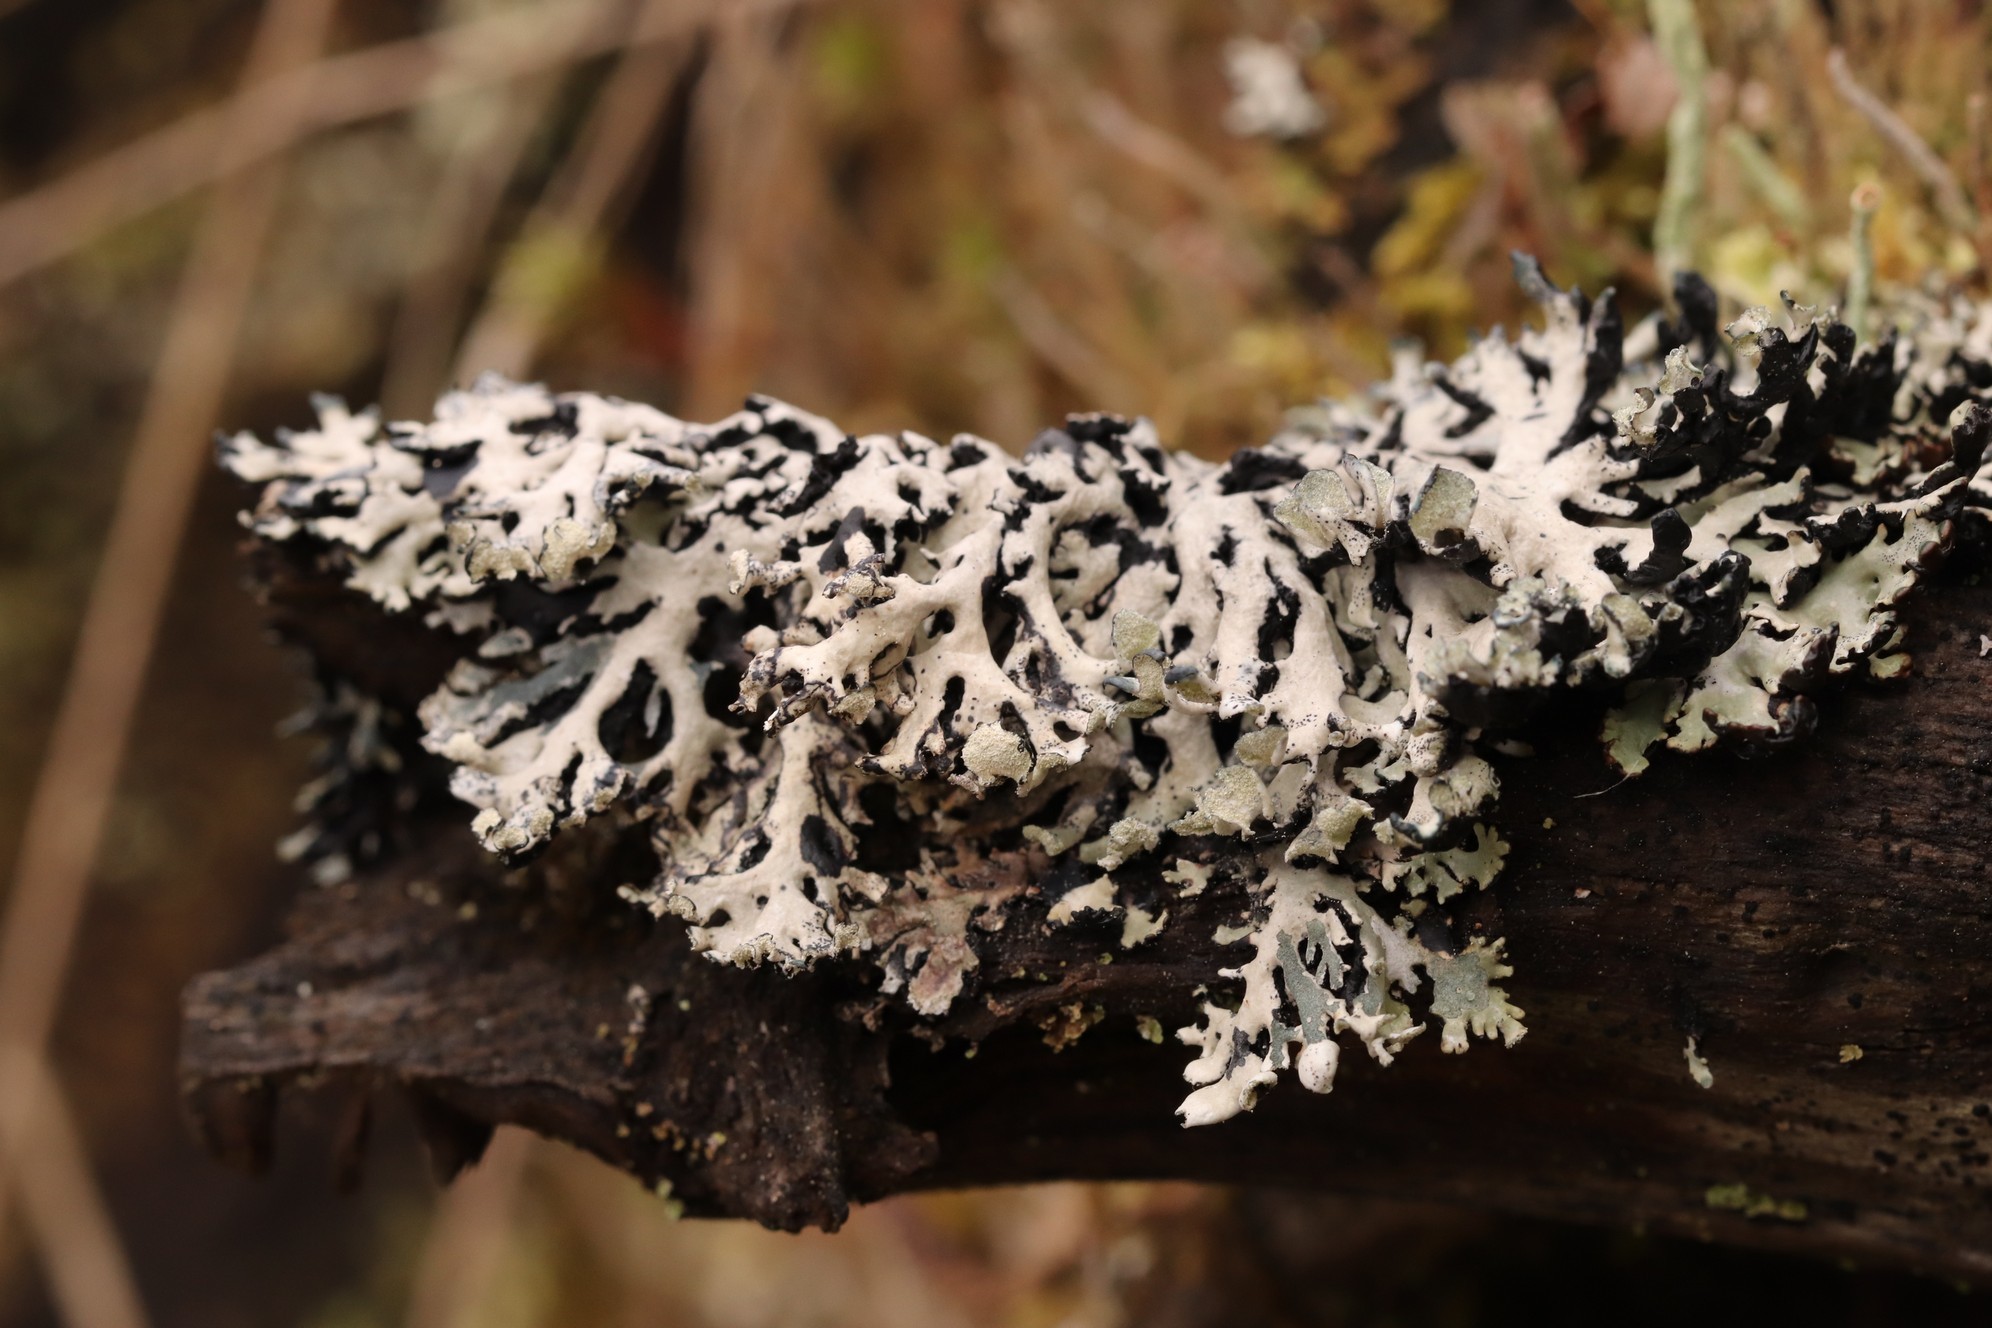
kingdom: Fungi
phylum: Ascomycota
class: Lecanoromycetes
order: Lecanorales
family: Parmeliaceae
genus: Hypogymnia
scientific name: Hypogymnia physodes
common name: Dark crottle
